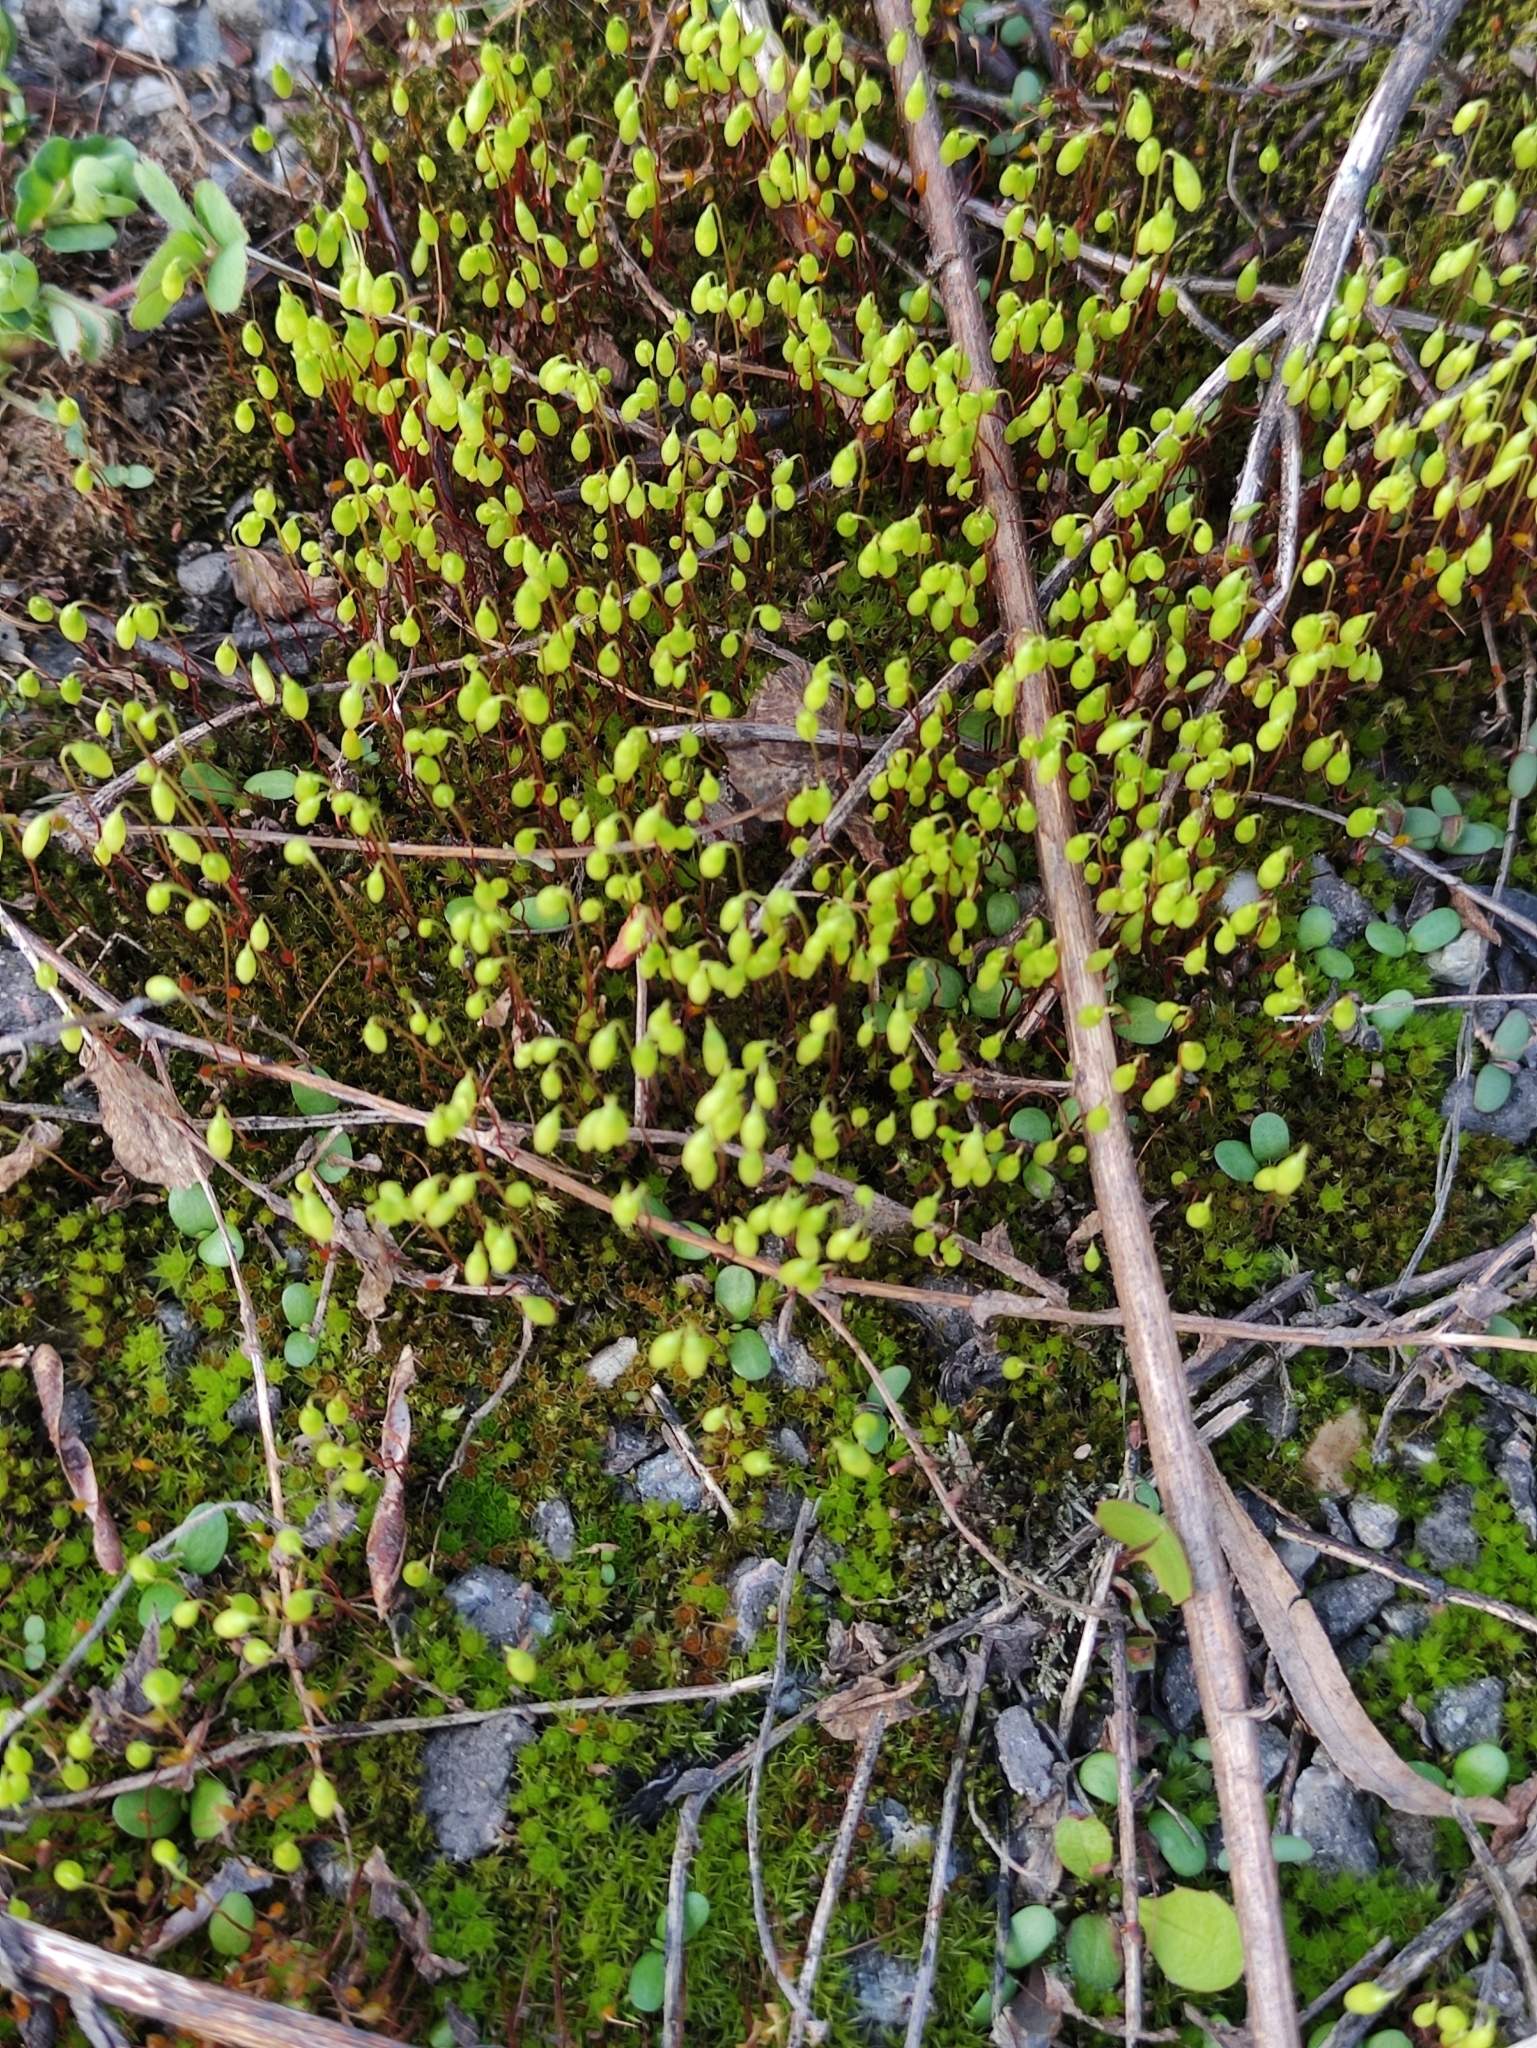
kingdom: Plantae
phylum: Bryophyta
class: Bryopsida
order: Bryales
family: Mniaceae
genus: Pohlia
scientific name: Pohlia nutans
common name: Nodding thread-moss
